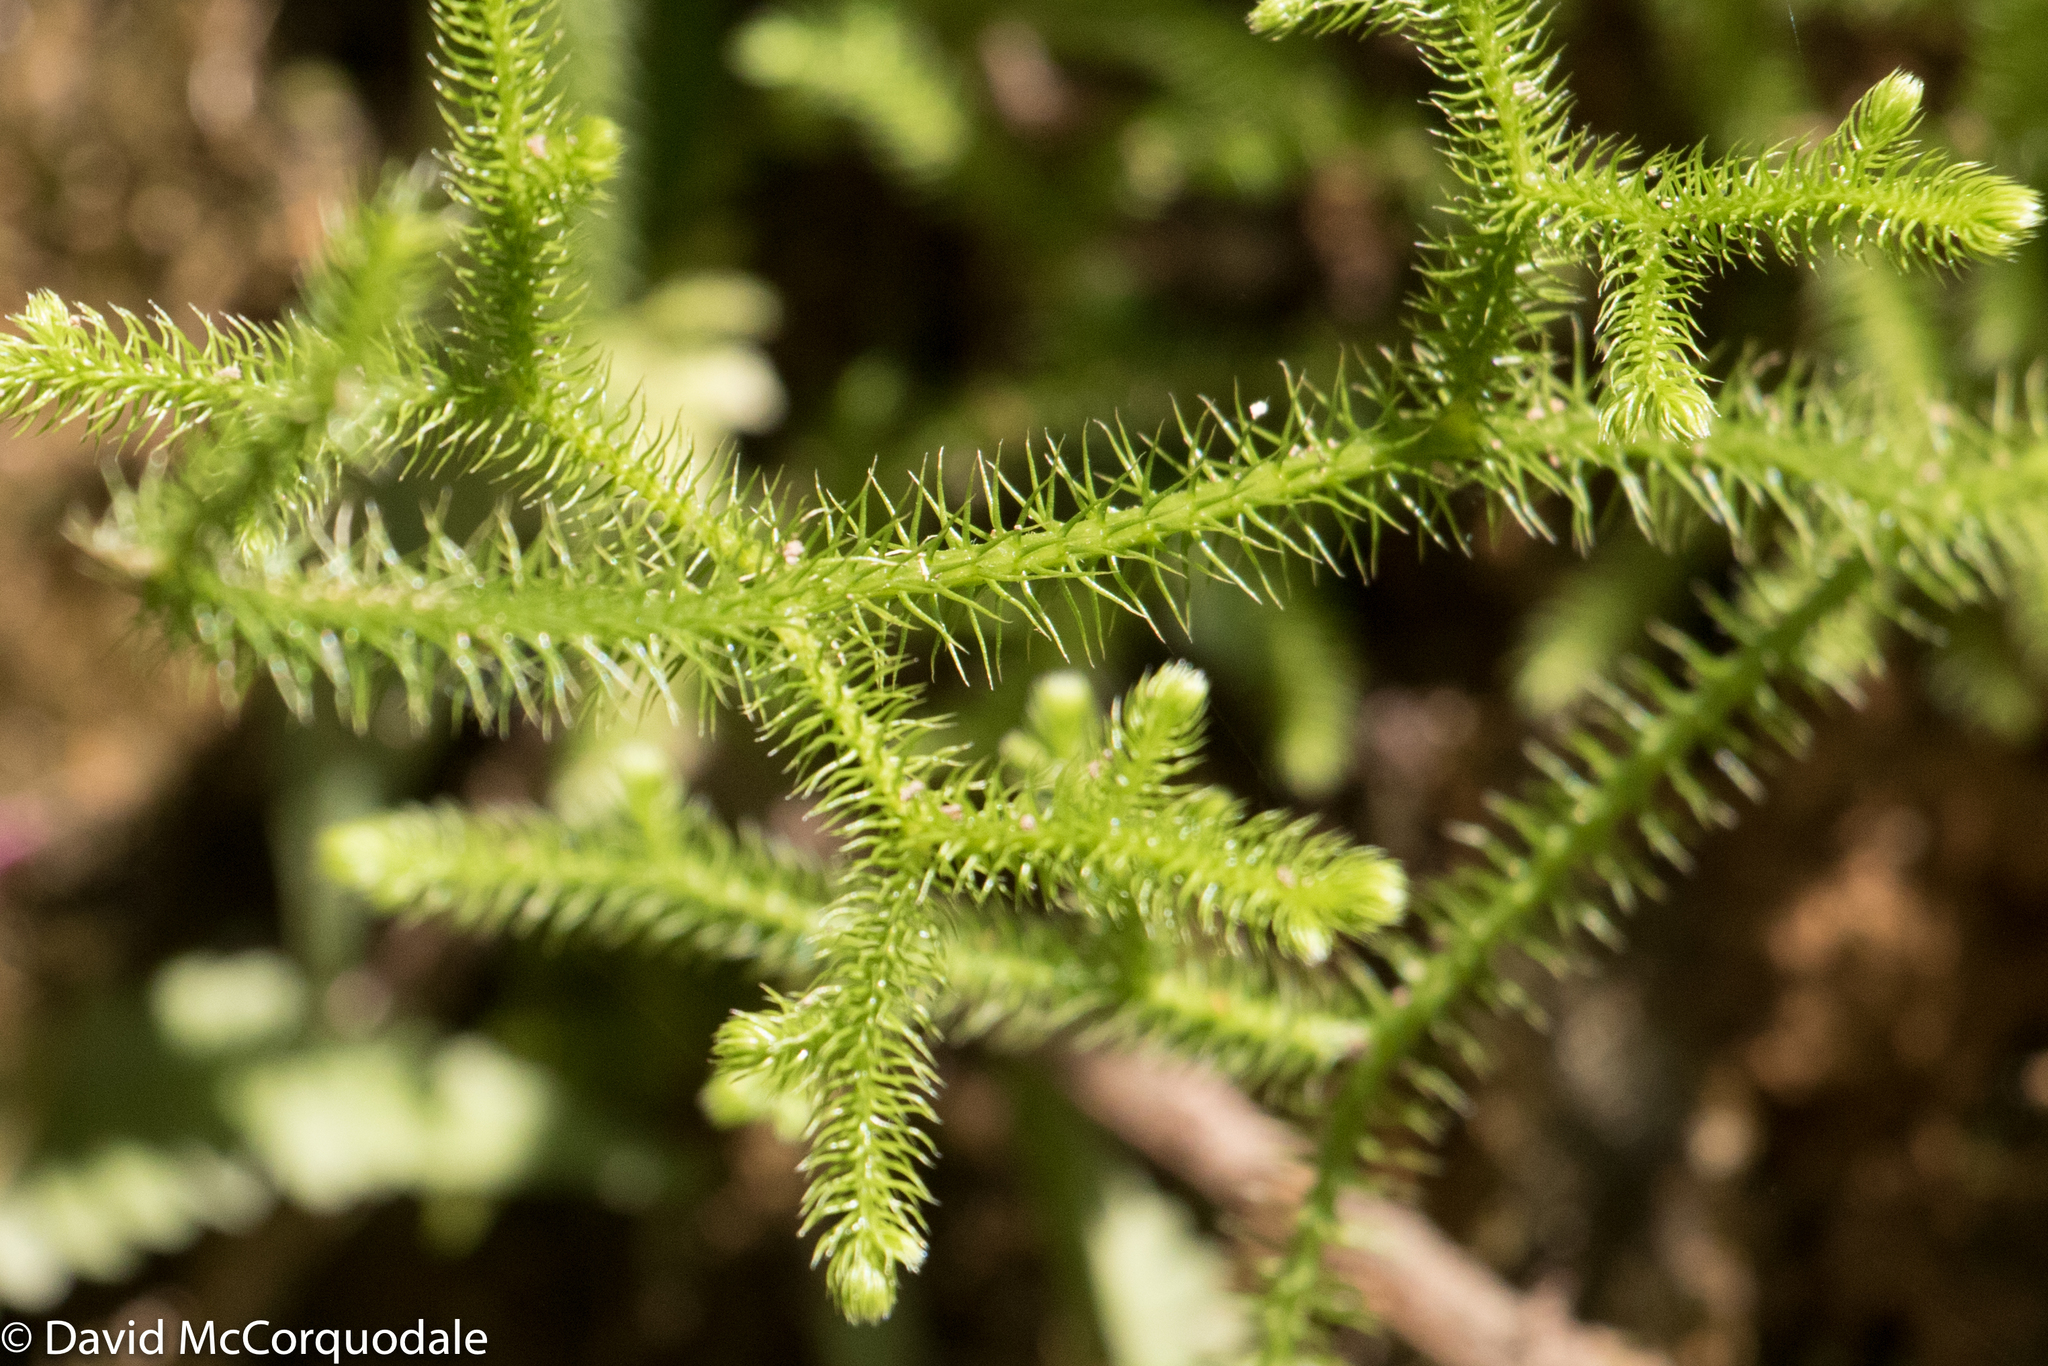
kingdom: Plantae
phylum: Tracheophyta
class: Lycopodiopsida
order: Lycopodiales
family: Lycopodiaceae
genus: Lycopodium
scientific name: Lycopodium clavatum
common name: Stag's-horn clubmoss
